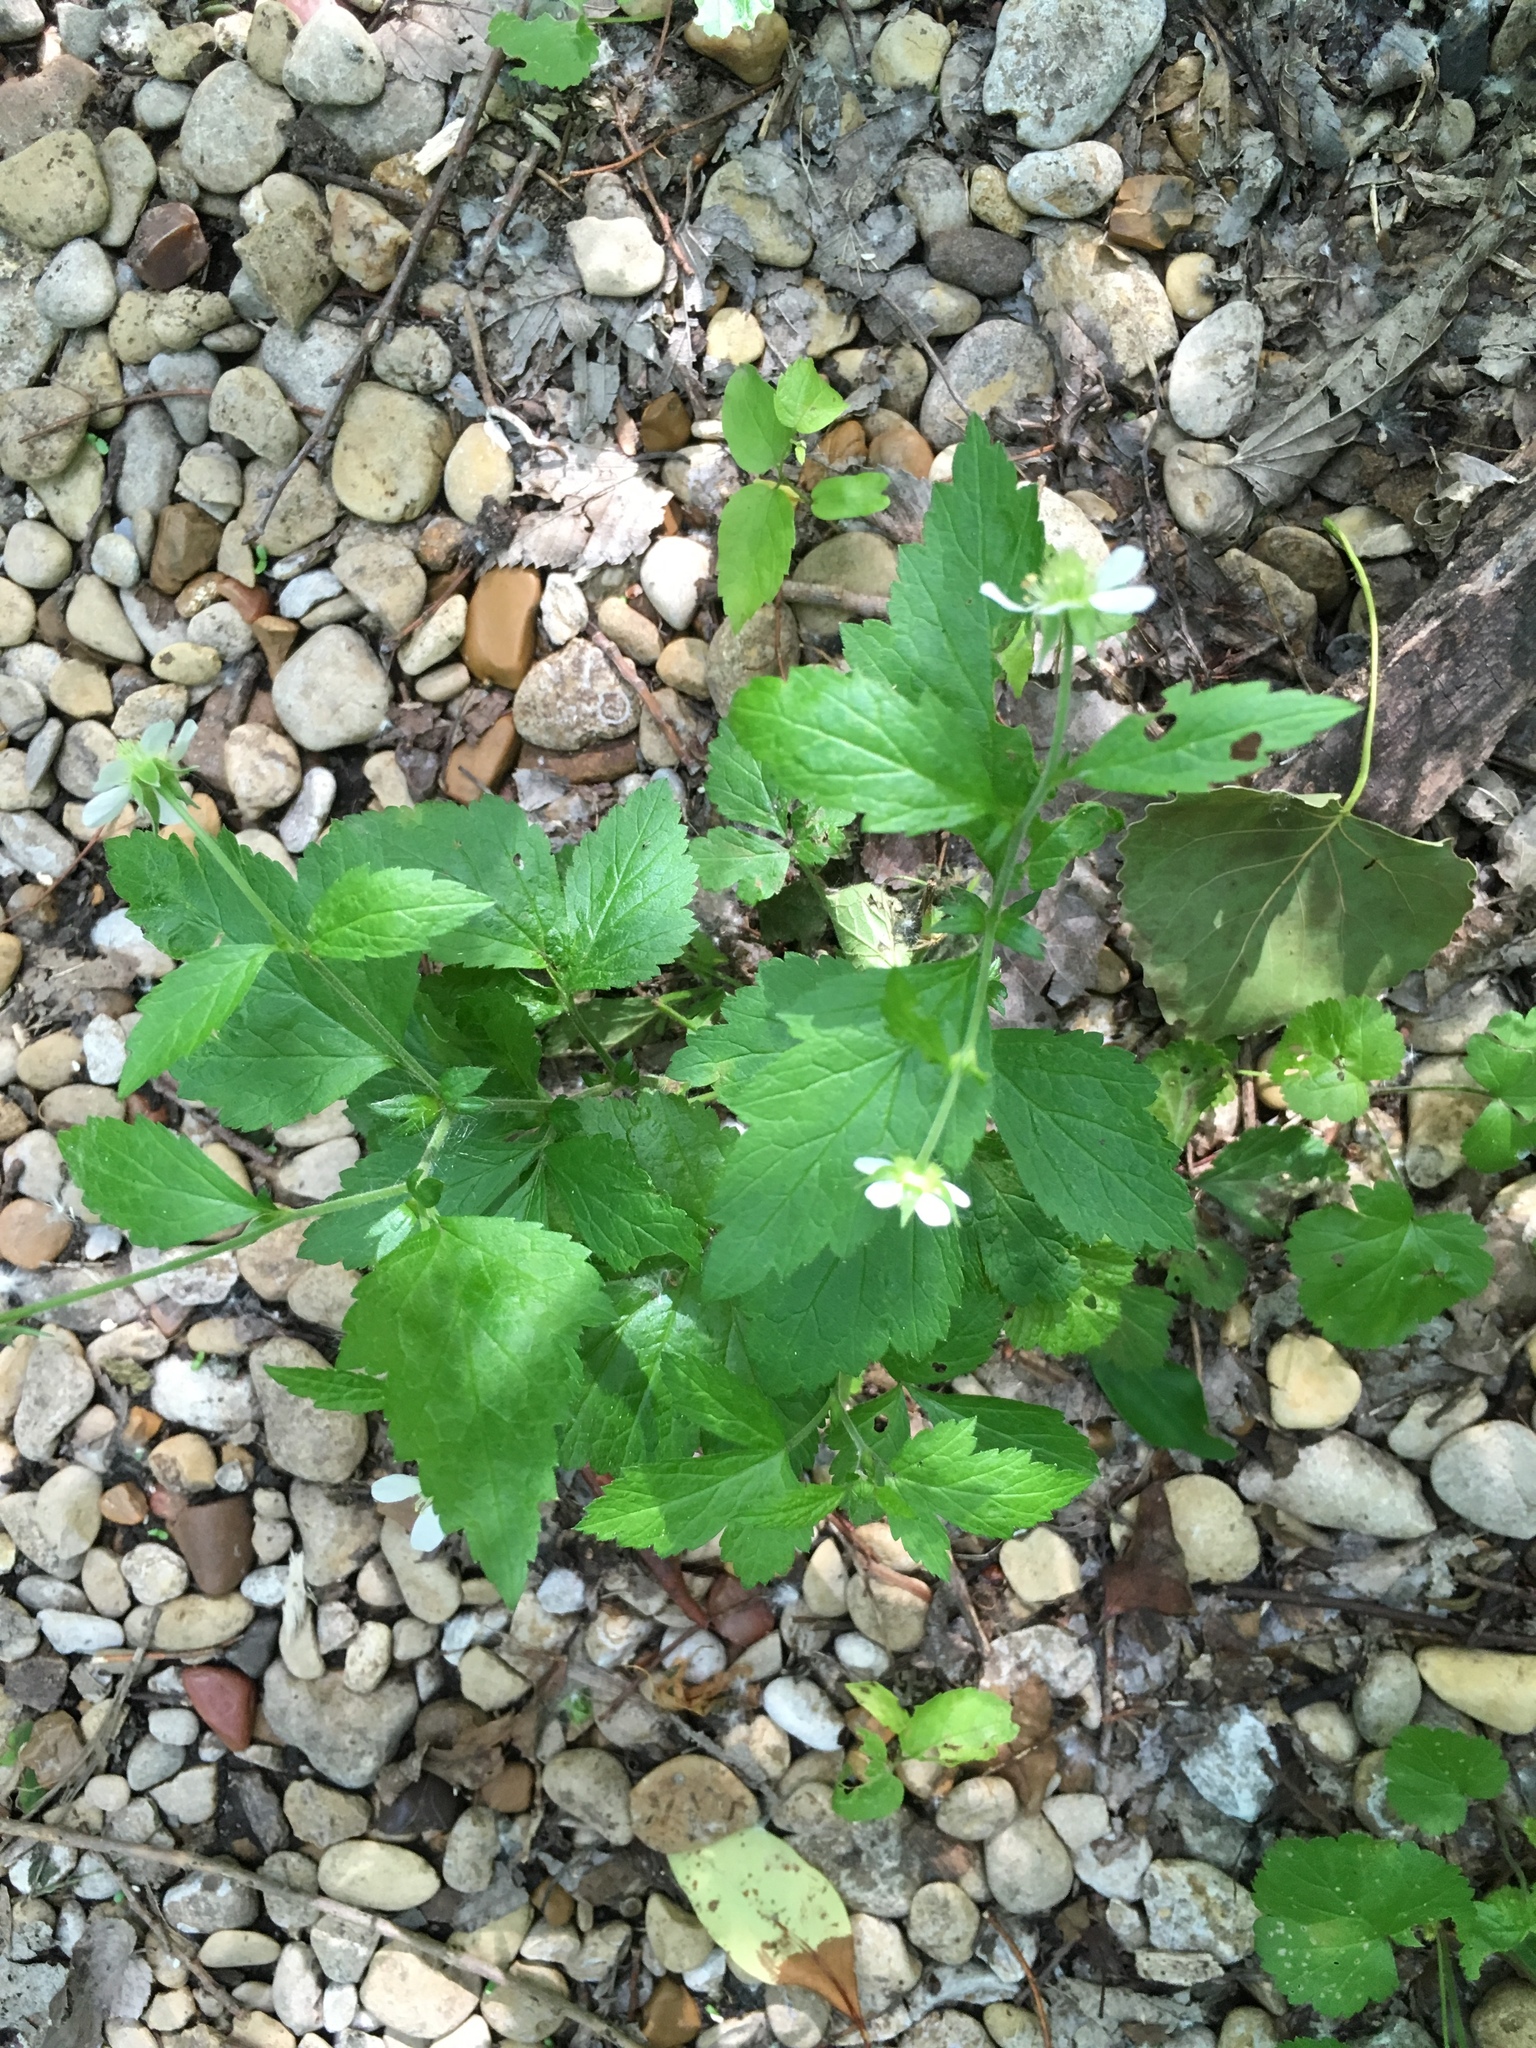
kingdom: Plantae
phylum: Tracheophyta
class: Magnoliopsida
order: Rosales
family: Rosaceae
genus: Geum
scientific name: Geum canadense
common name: White avens
